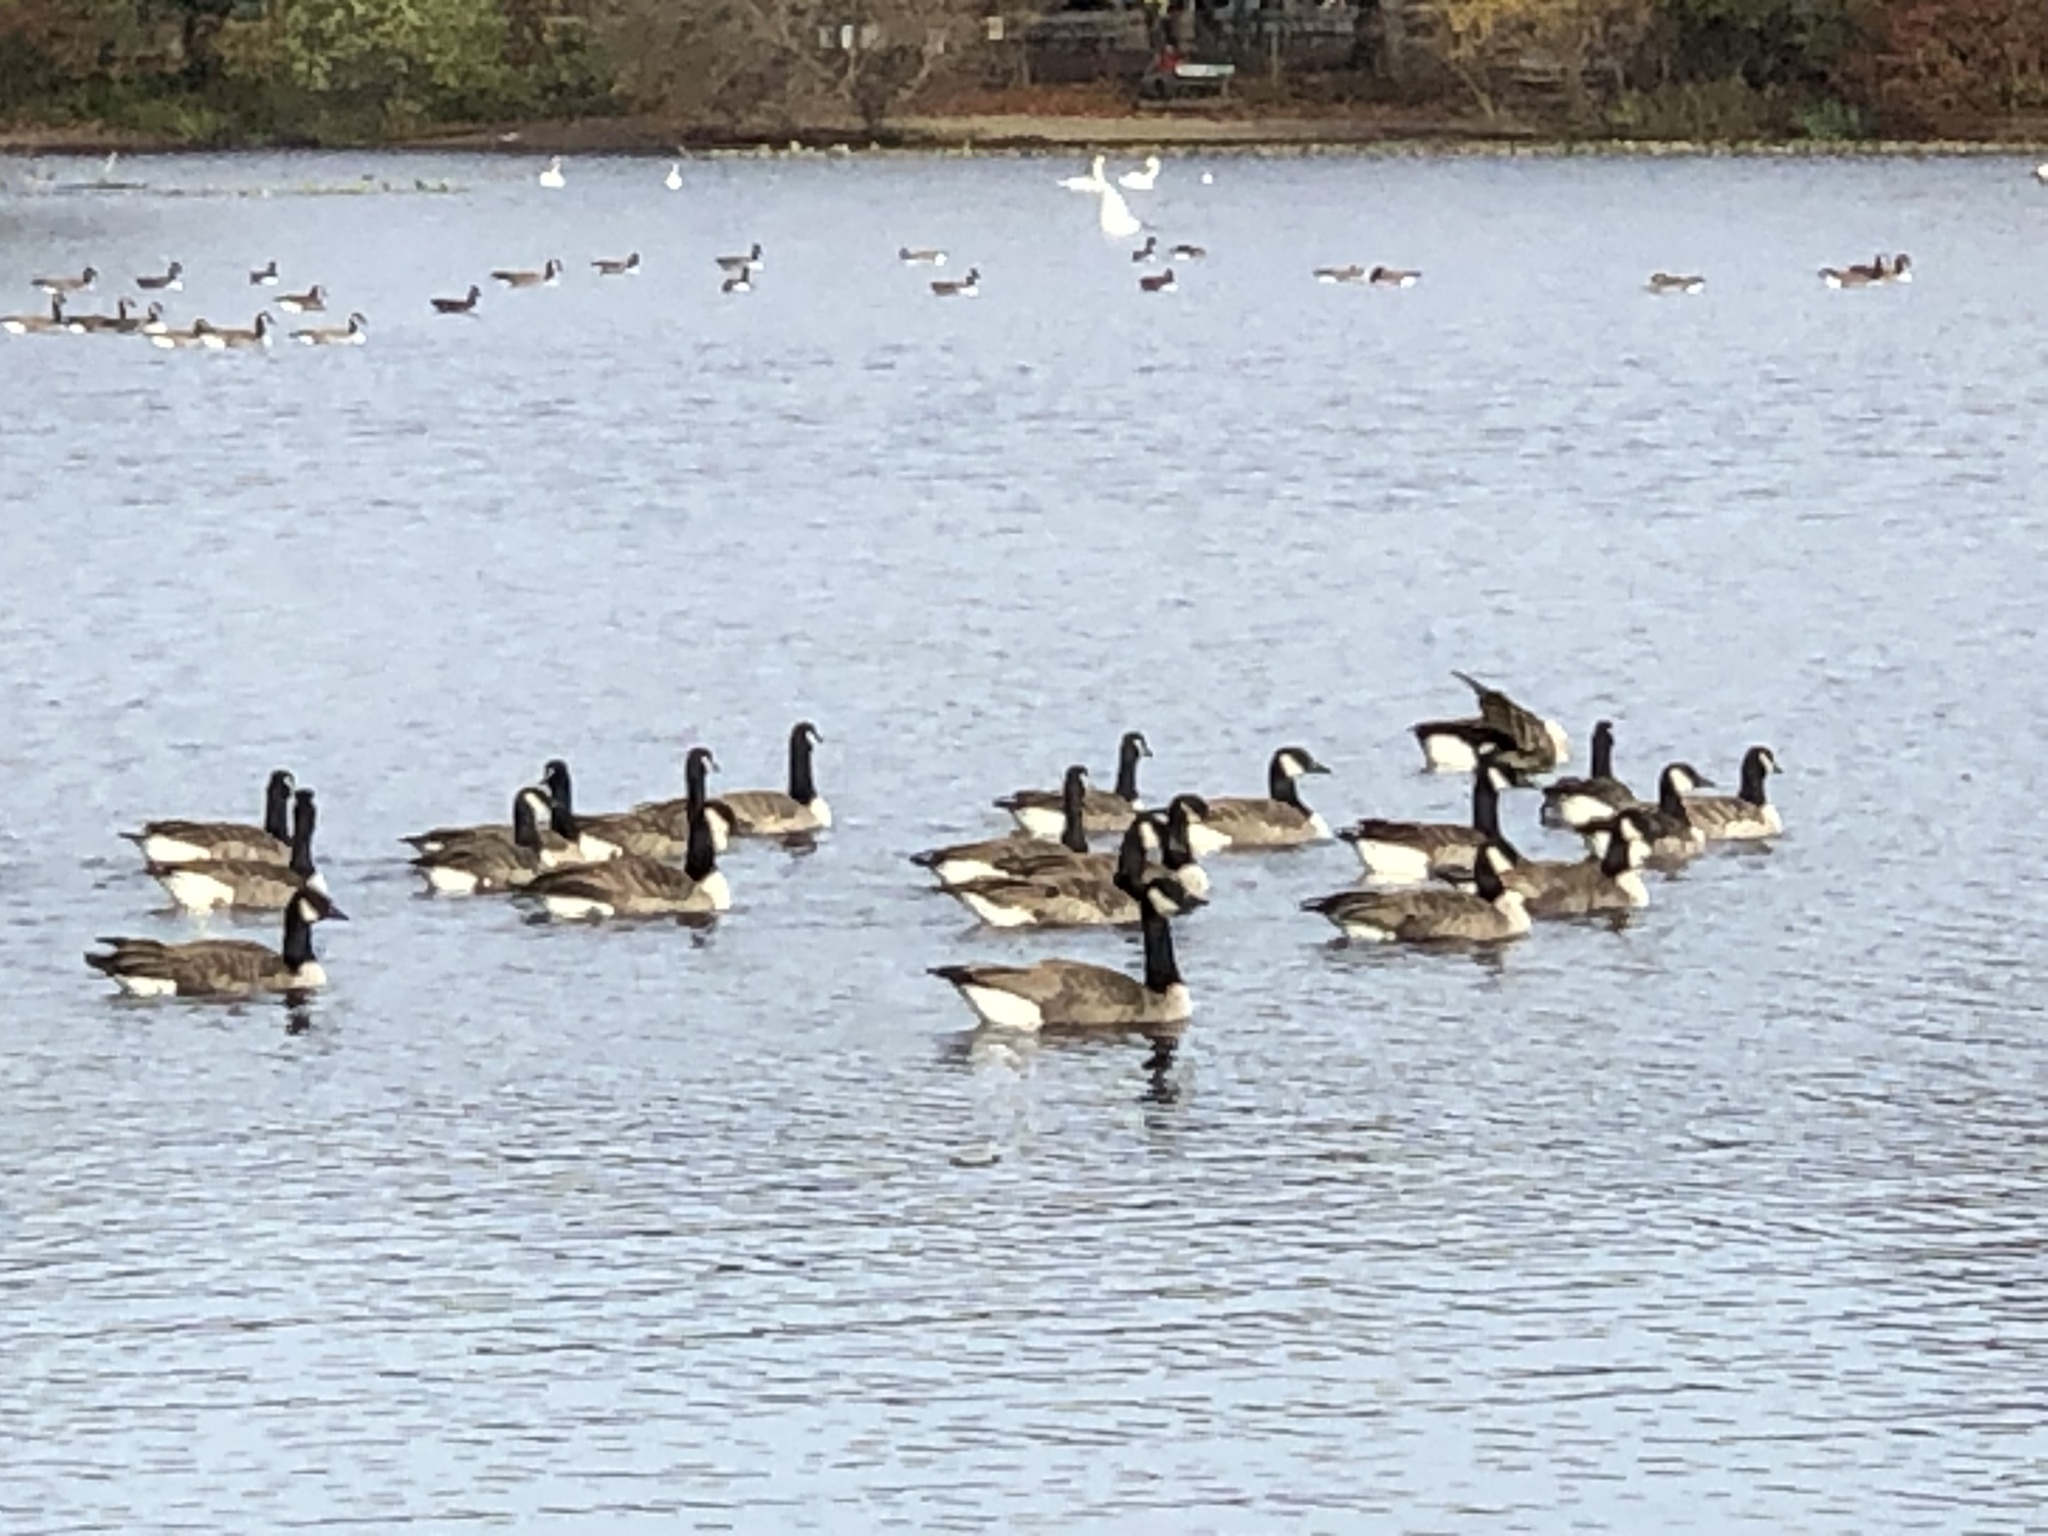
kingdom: Animalia
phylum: Chordata
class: Aves
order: Anseriformes
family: Anatidae
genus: Branta
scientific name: Branta canadensis
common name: Canada goose
